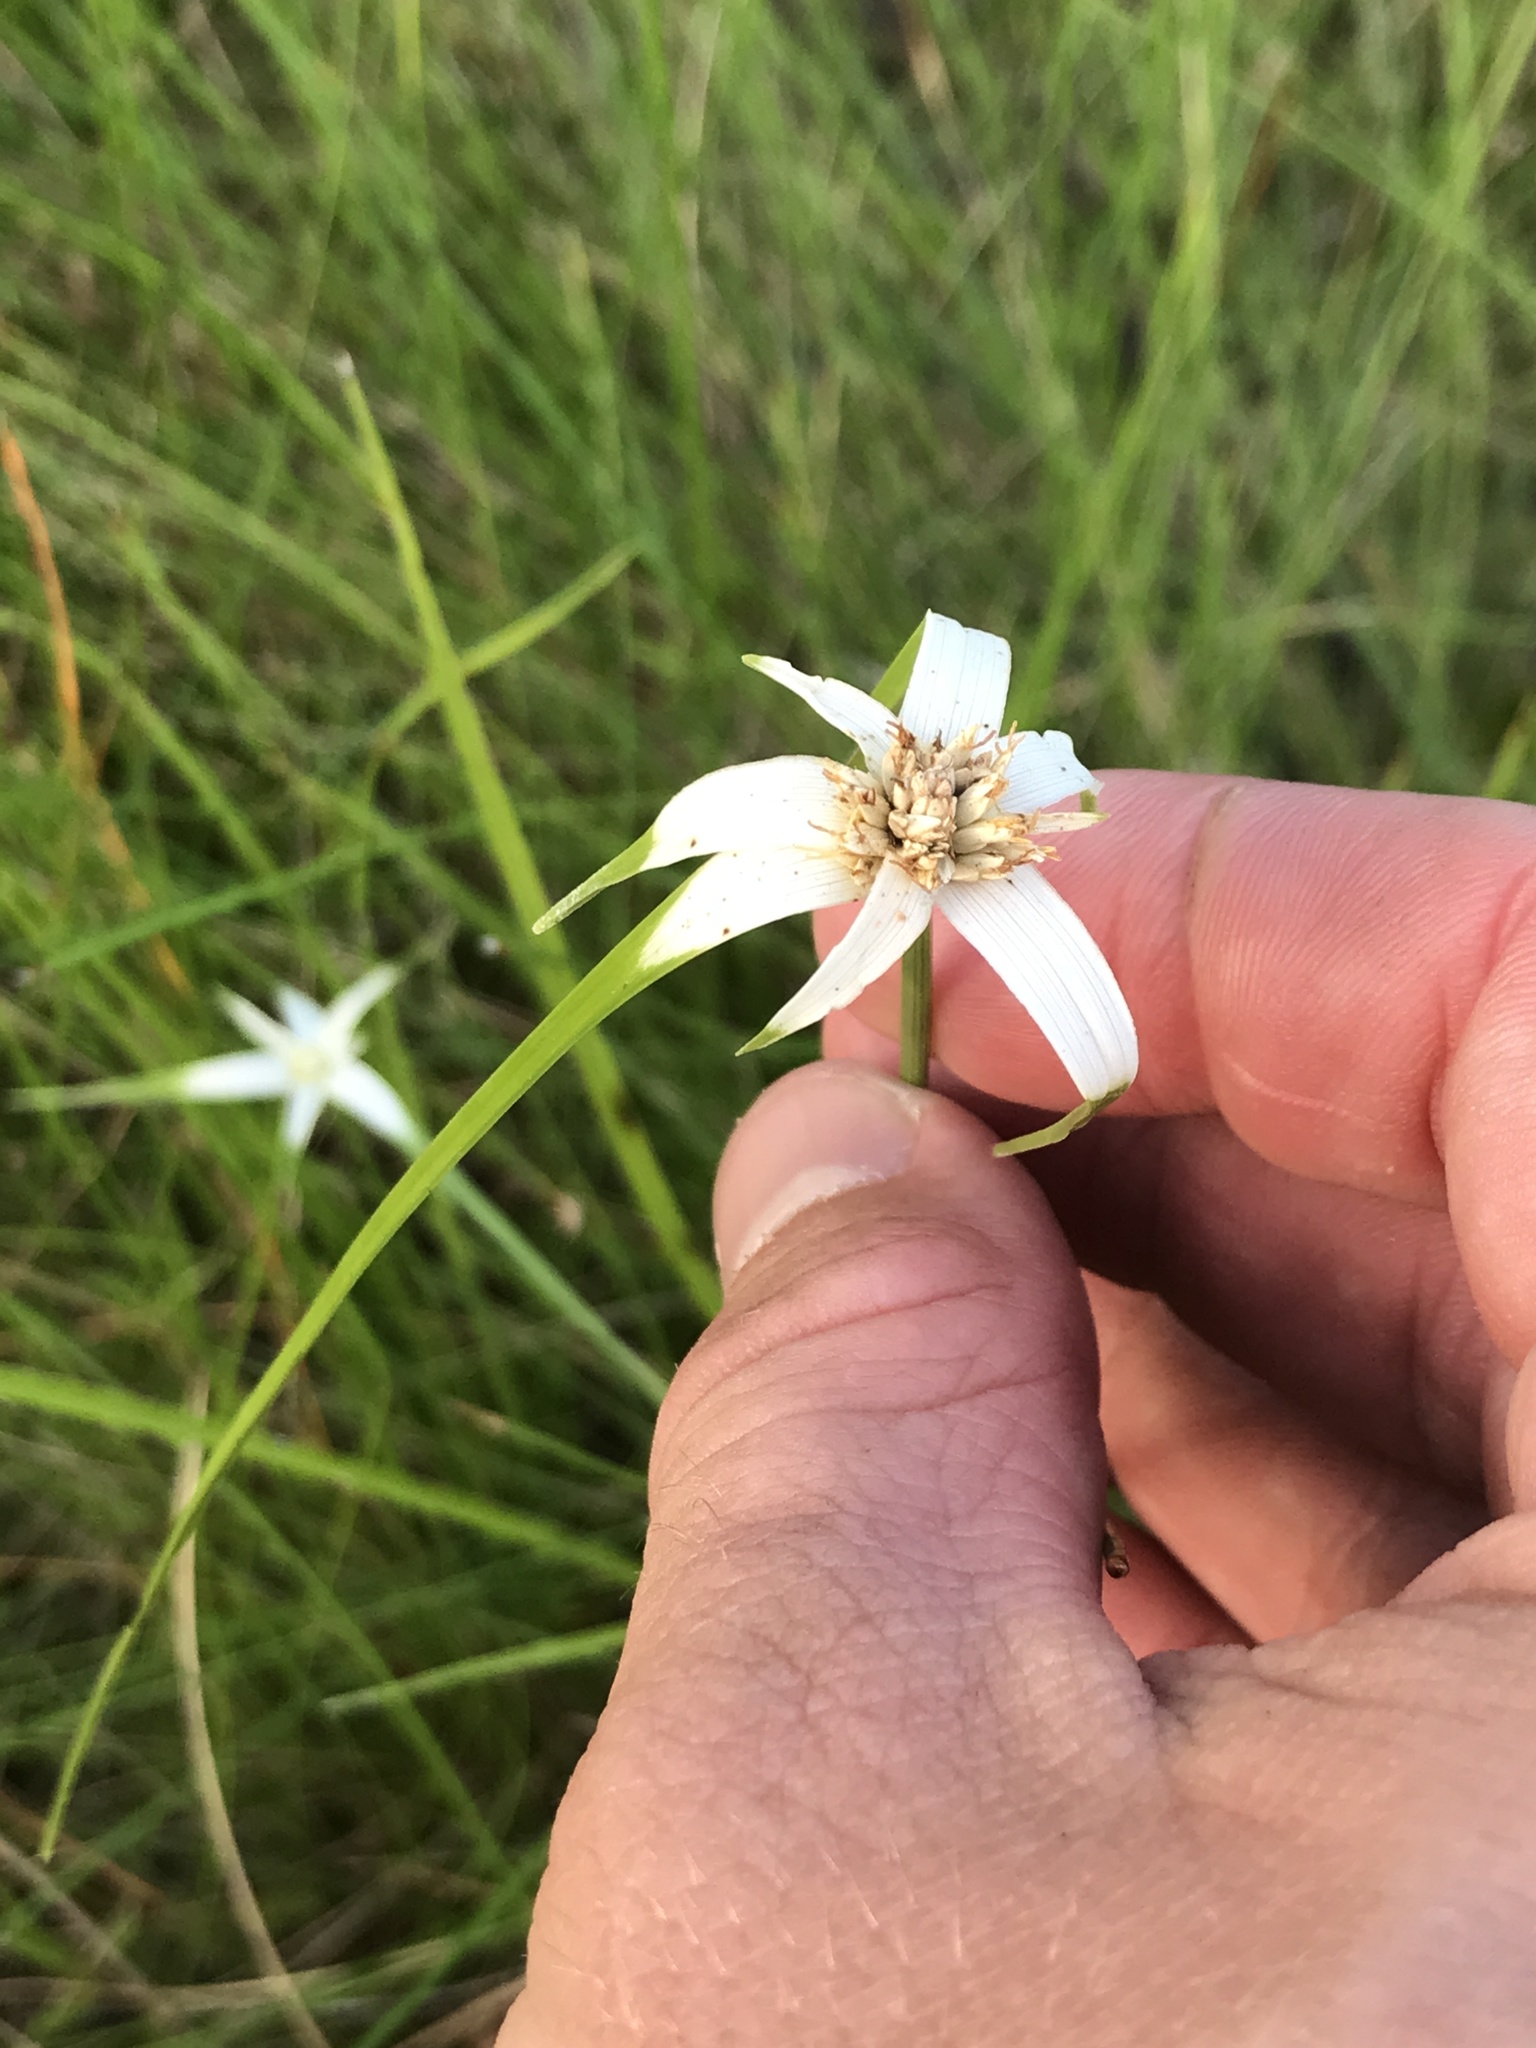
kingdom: Plantae
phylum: Tracheophyta
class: Liliopsida
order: Poales
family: Cyperaceae
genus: Rhynchospora
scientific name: Rhynchospora colorata
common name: Star sedge
